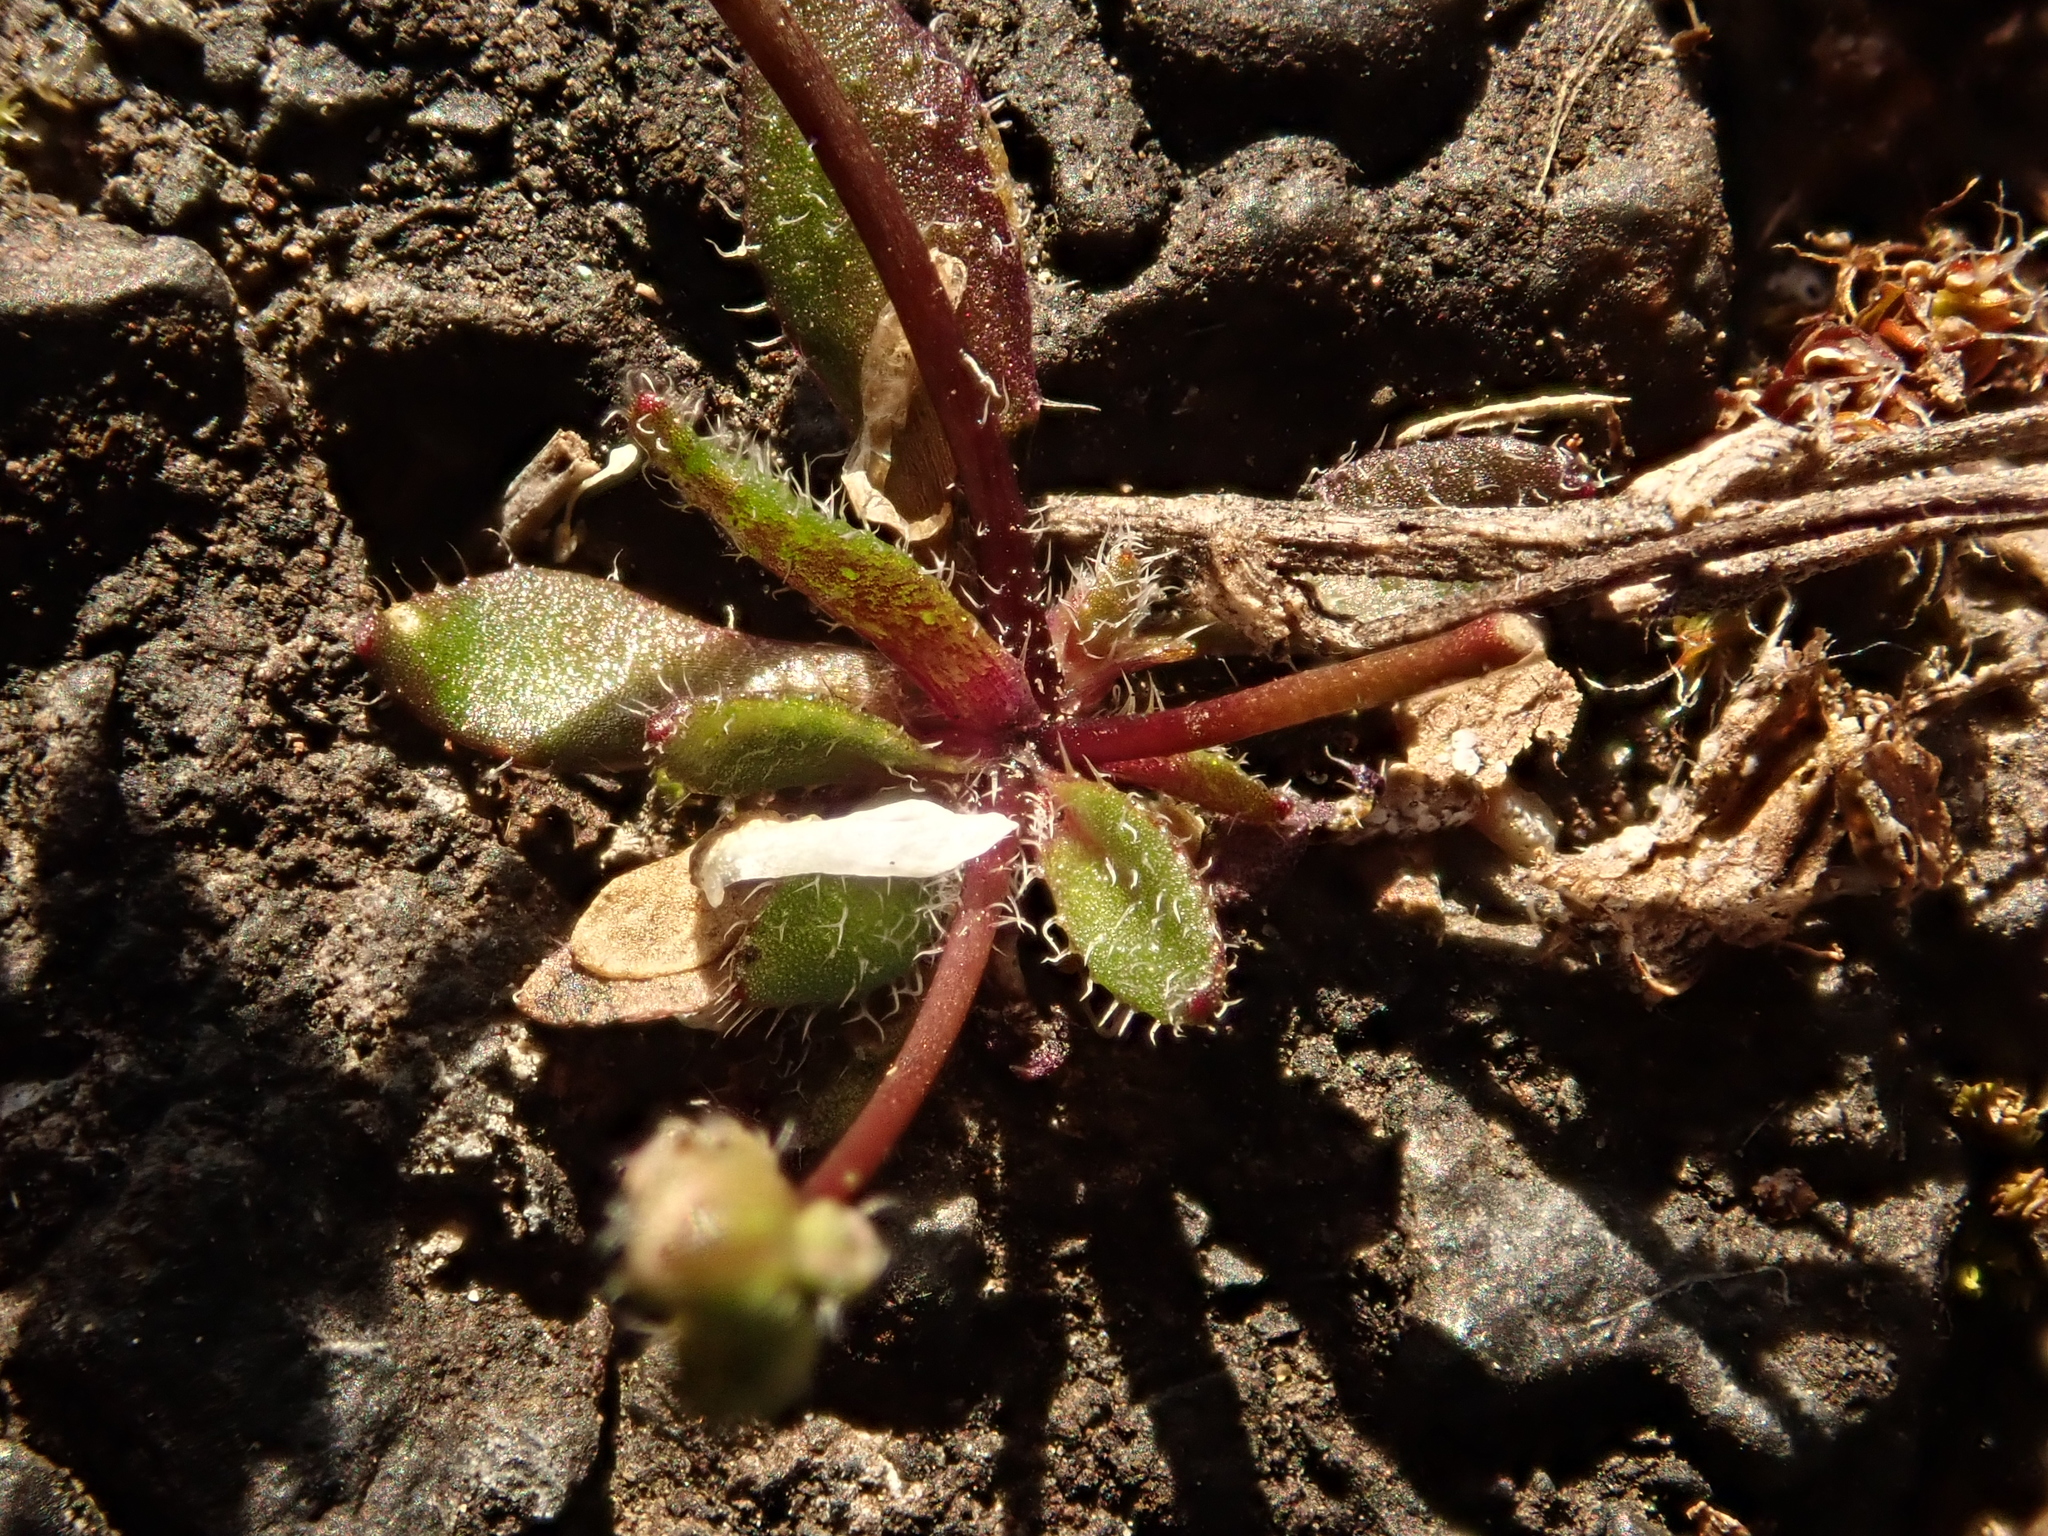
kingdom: Plantae
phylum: Tracheophyta
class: Magnoliopsida
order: Brassicales
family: Brassicaceae
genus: Draba
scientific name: Draba verna
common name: Spring draba
